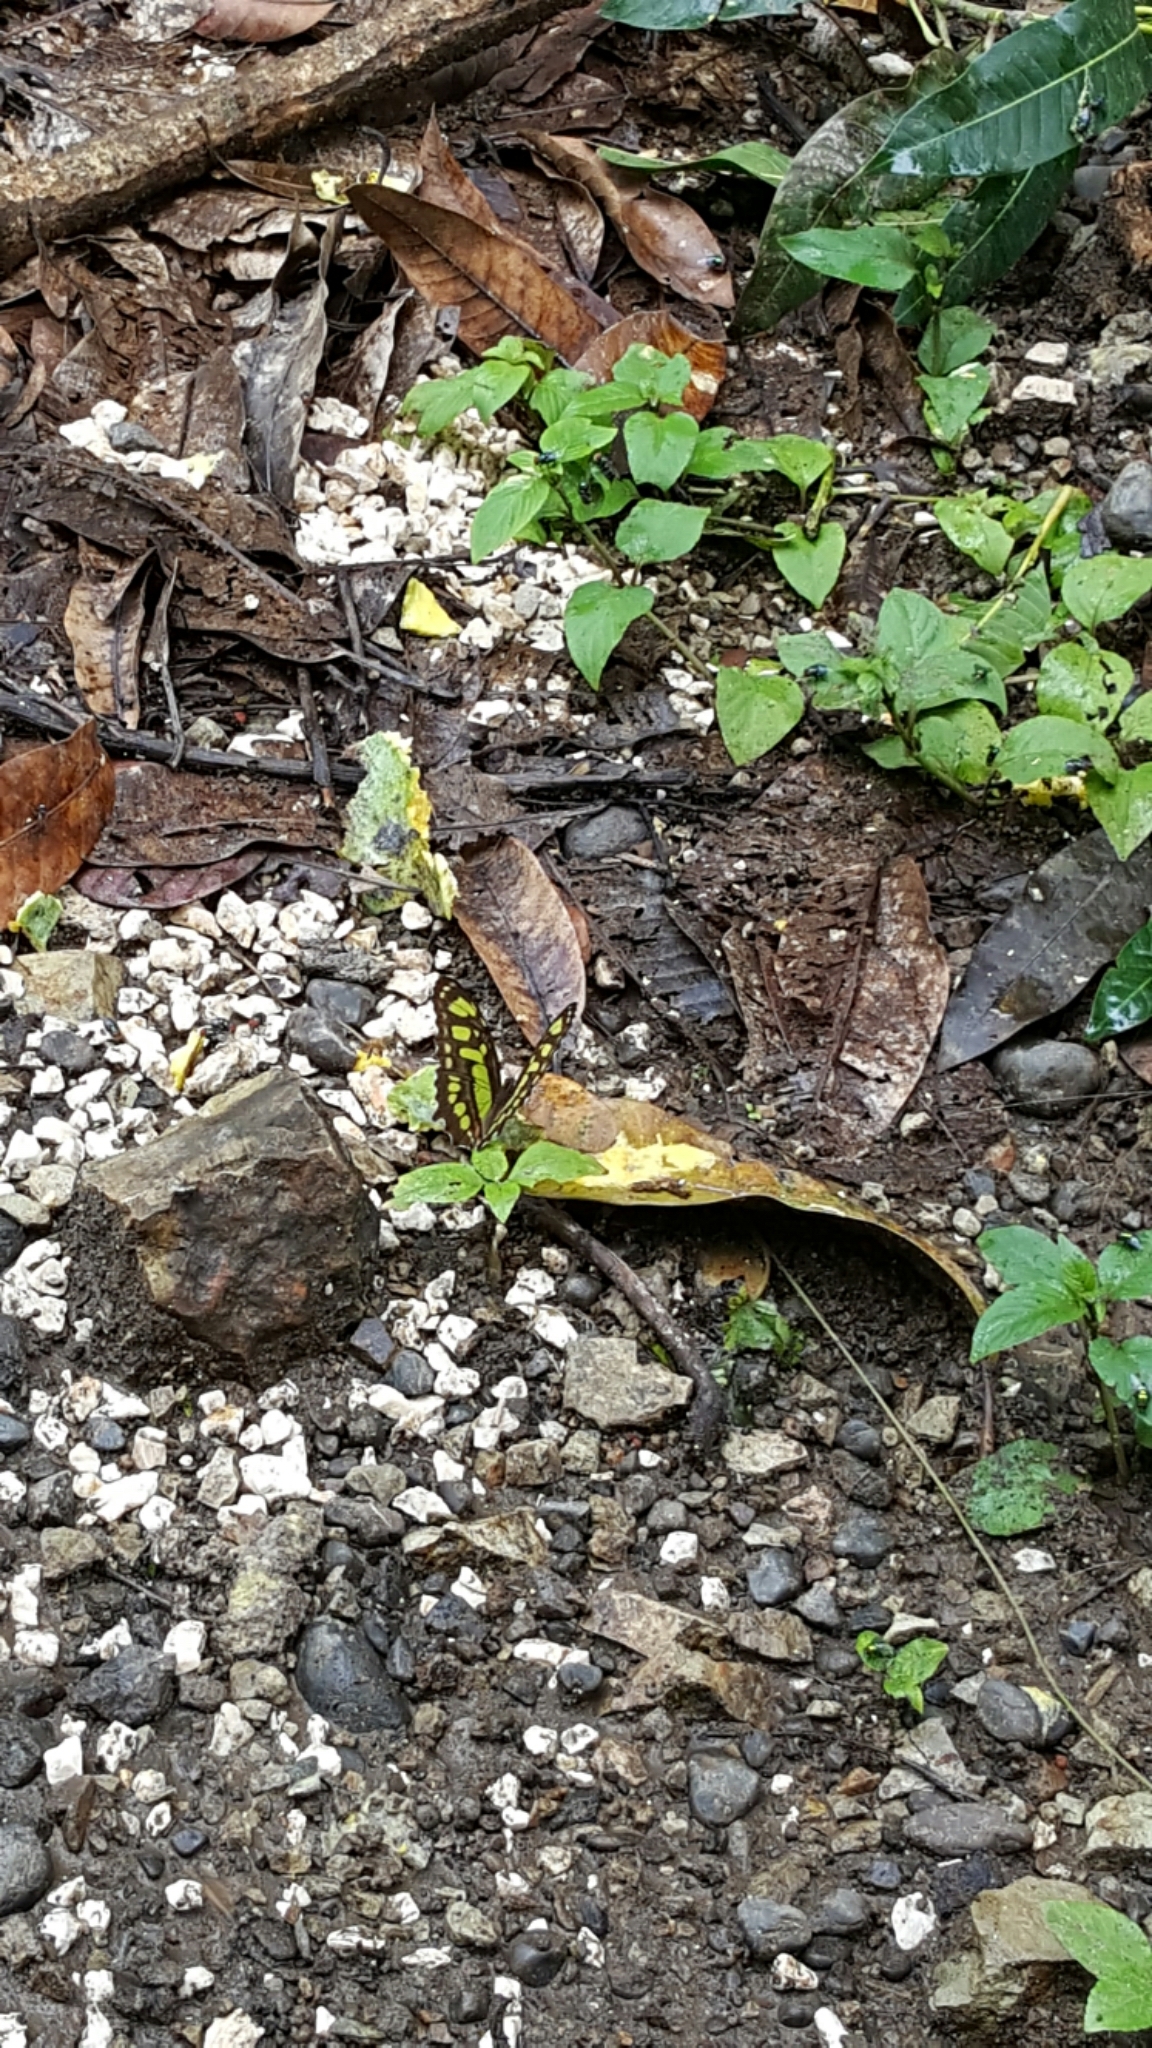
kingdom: Animalia
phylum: Arthropoda
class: Insecta
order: Lepidoptera
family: Nymphalidae
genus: Siproeta
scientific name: Siproeta stelenes
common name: Malachite
